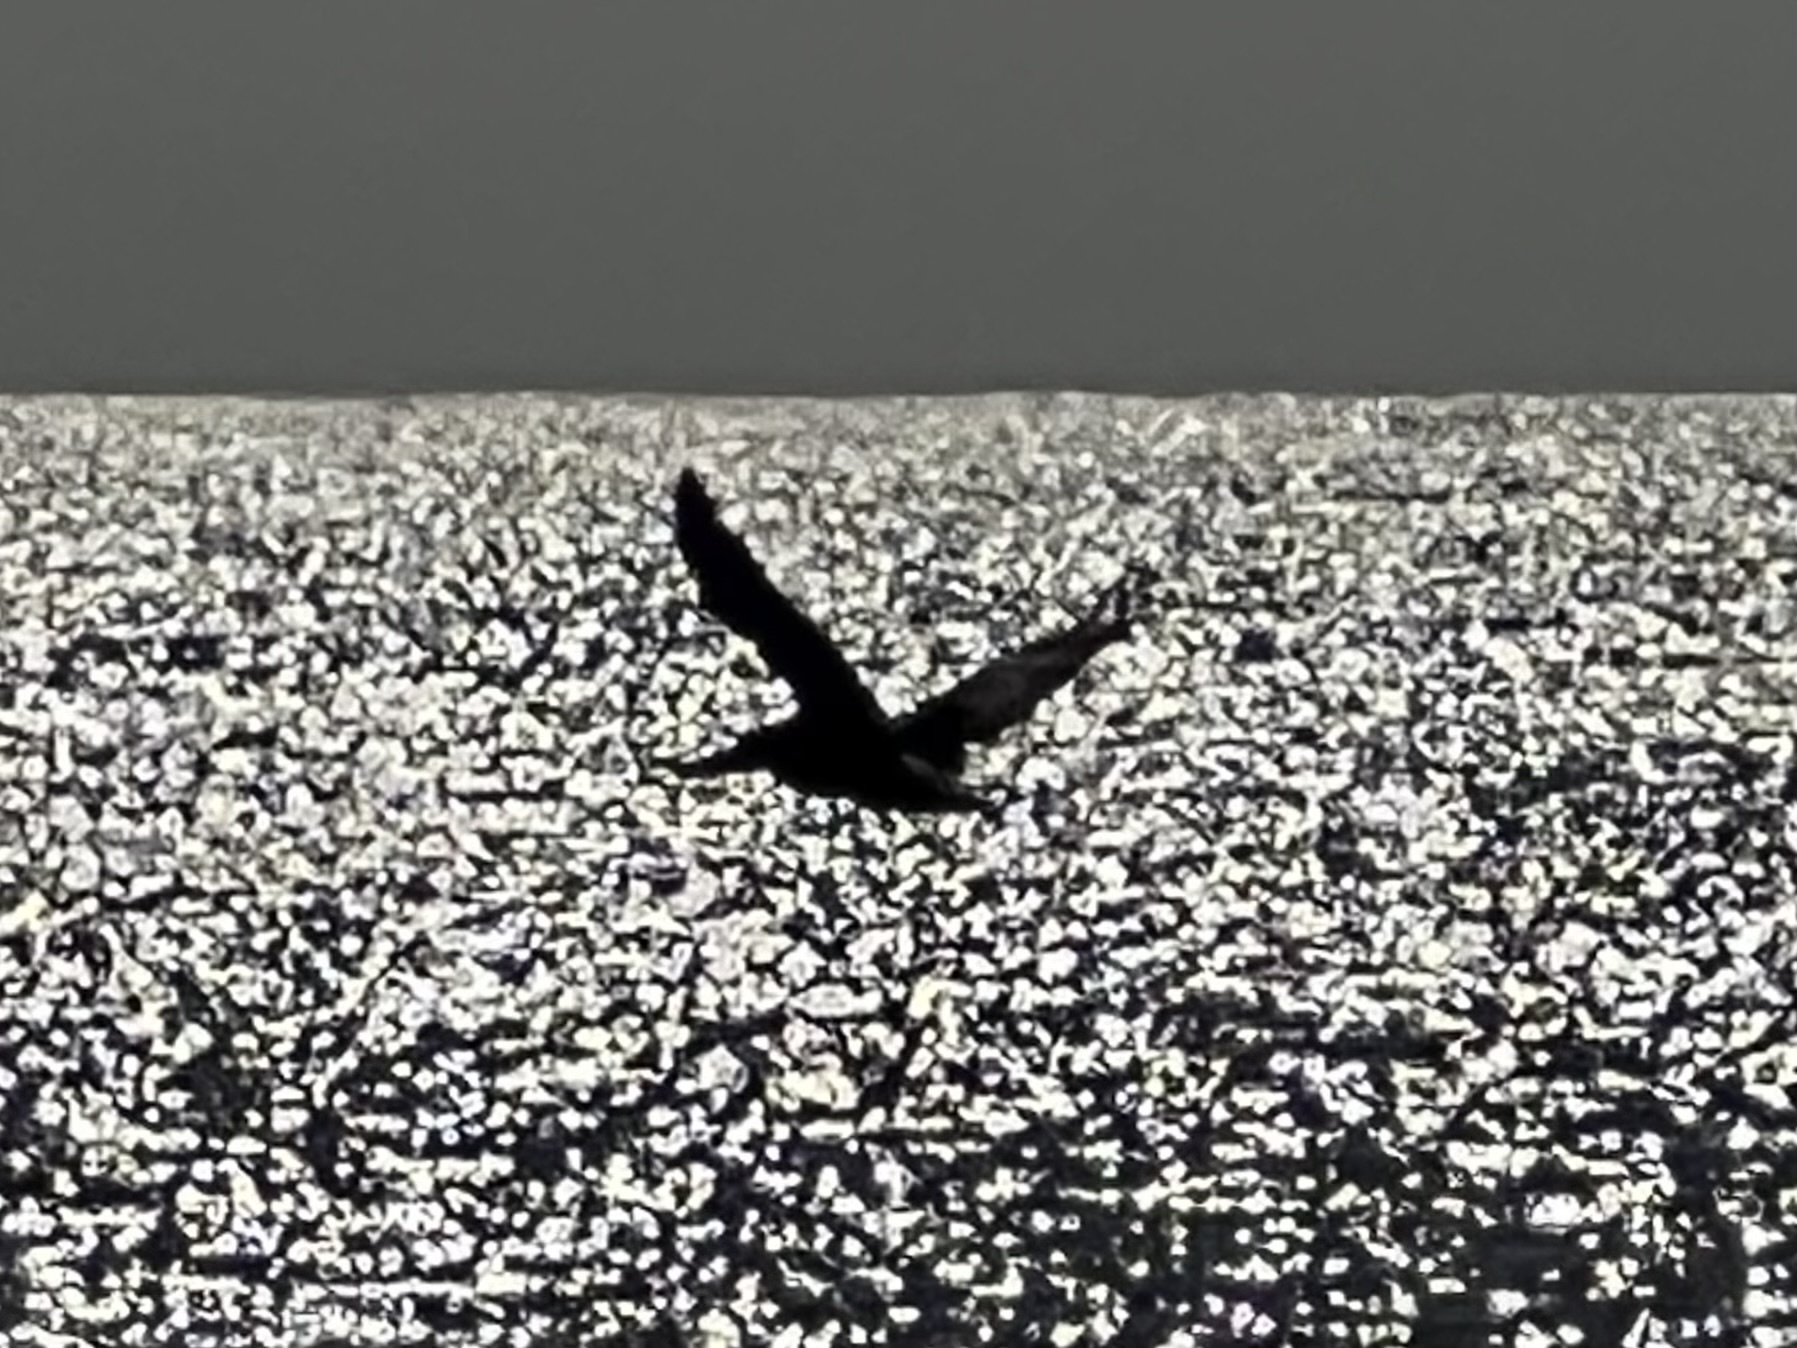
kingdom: Animalia
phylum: Chordata
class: Aves
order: Pelecaniformes
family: Pelecanidae
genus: Pelecanus
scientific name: Pelecanus occidentalis
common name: Brown pelican
